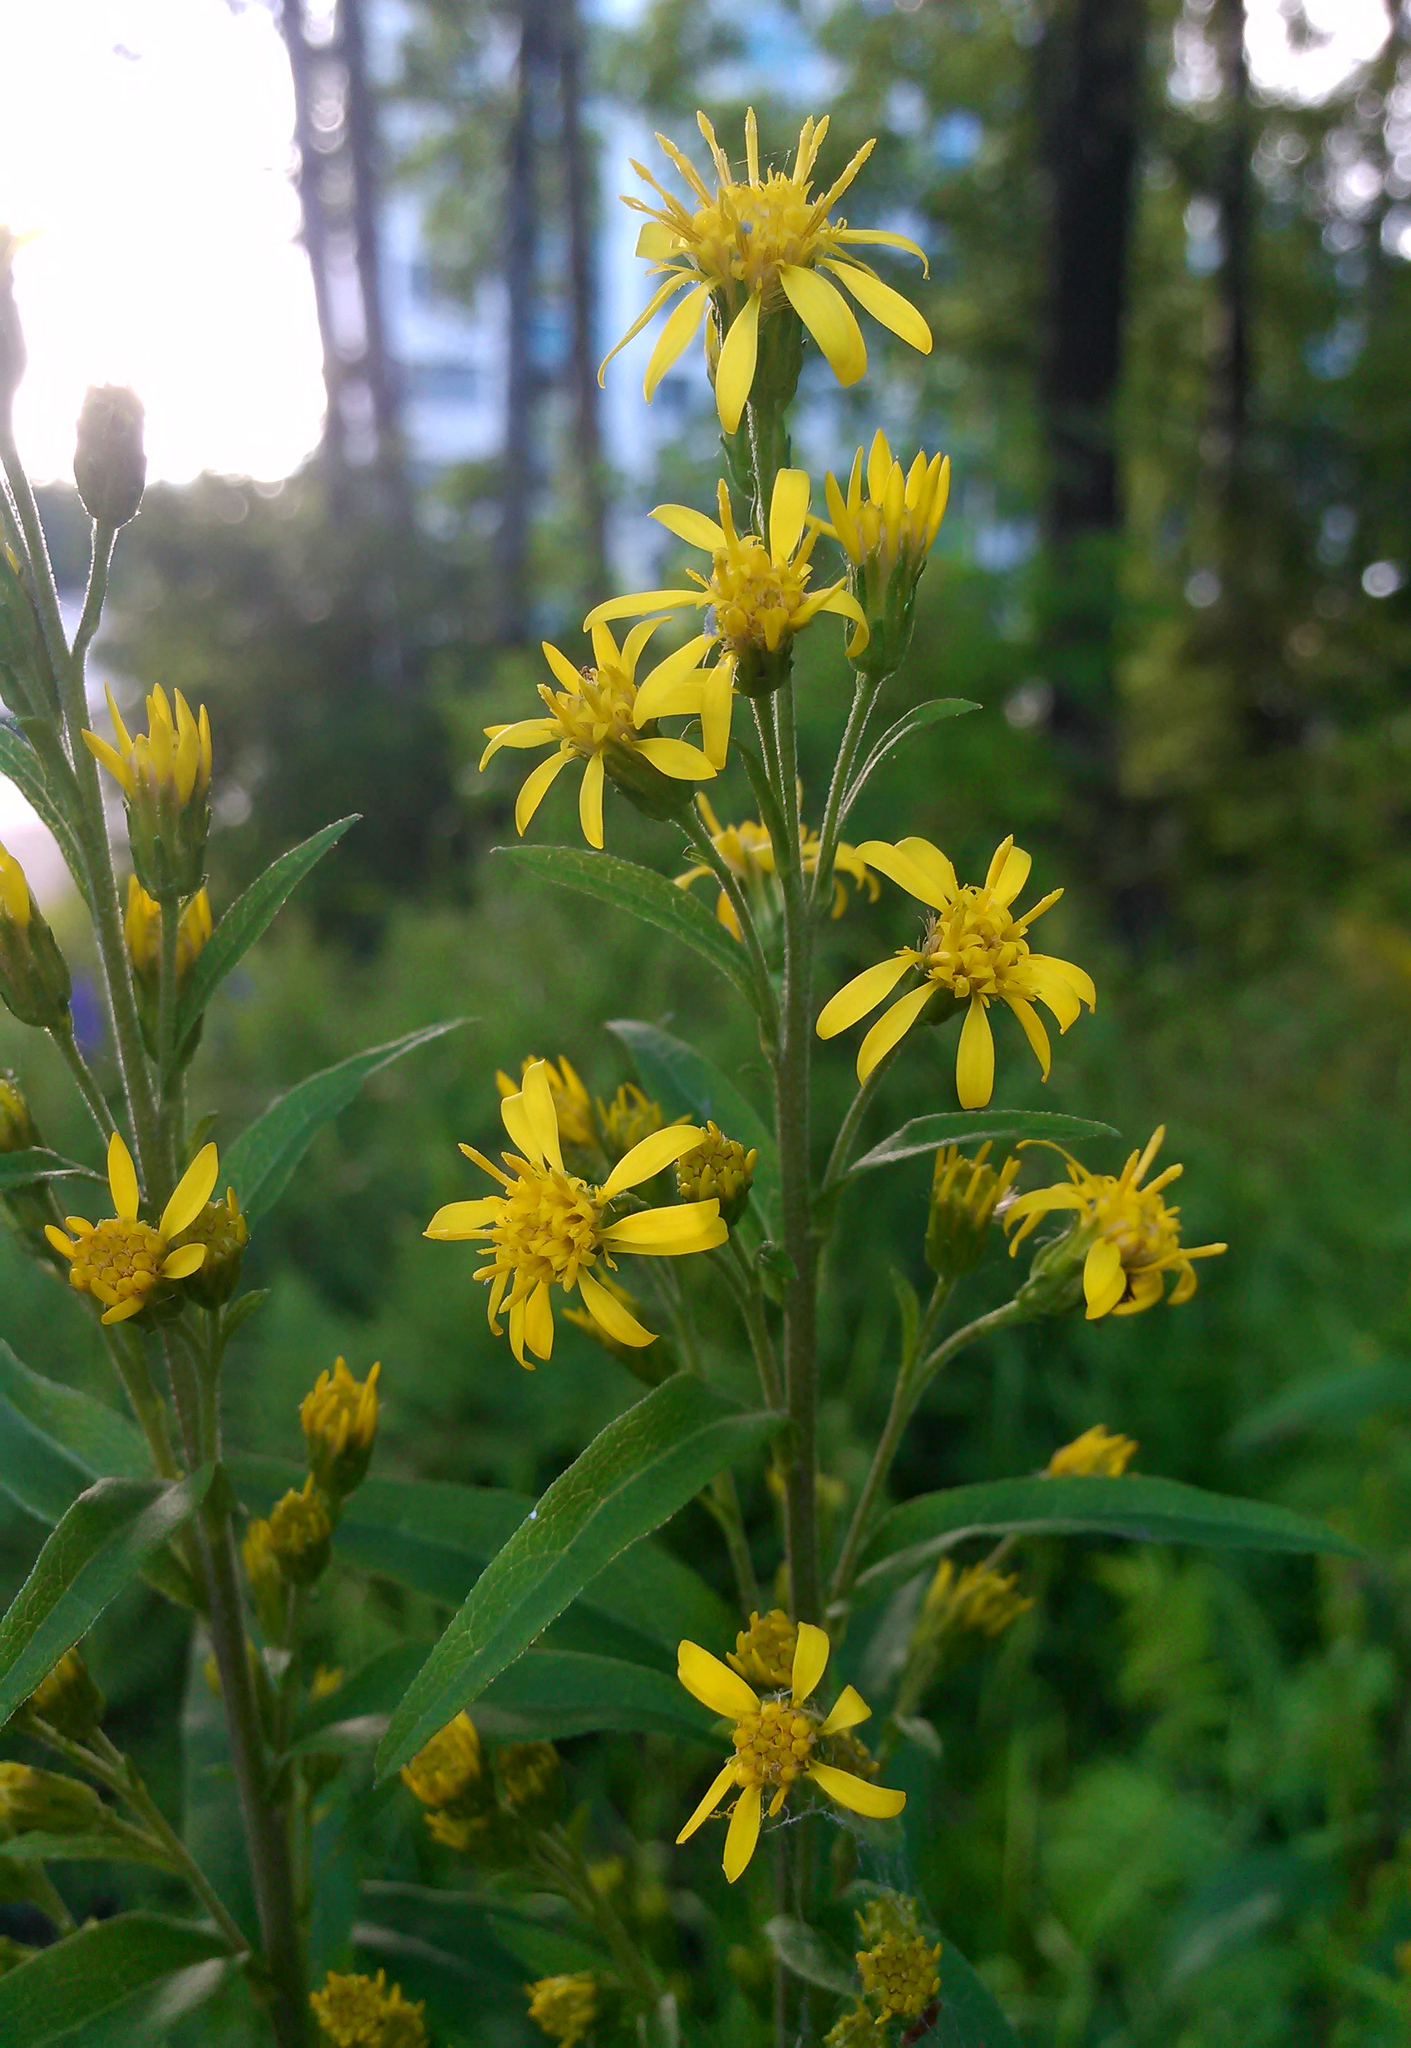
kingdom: Plantae
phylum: Tracheophyta
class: Magnoliopsida
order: Asterales
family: Asteraceae
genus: Solidago
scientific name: Solidago virgaurea
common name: Goldenrod
